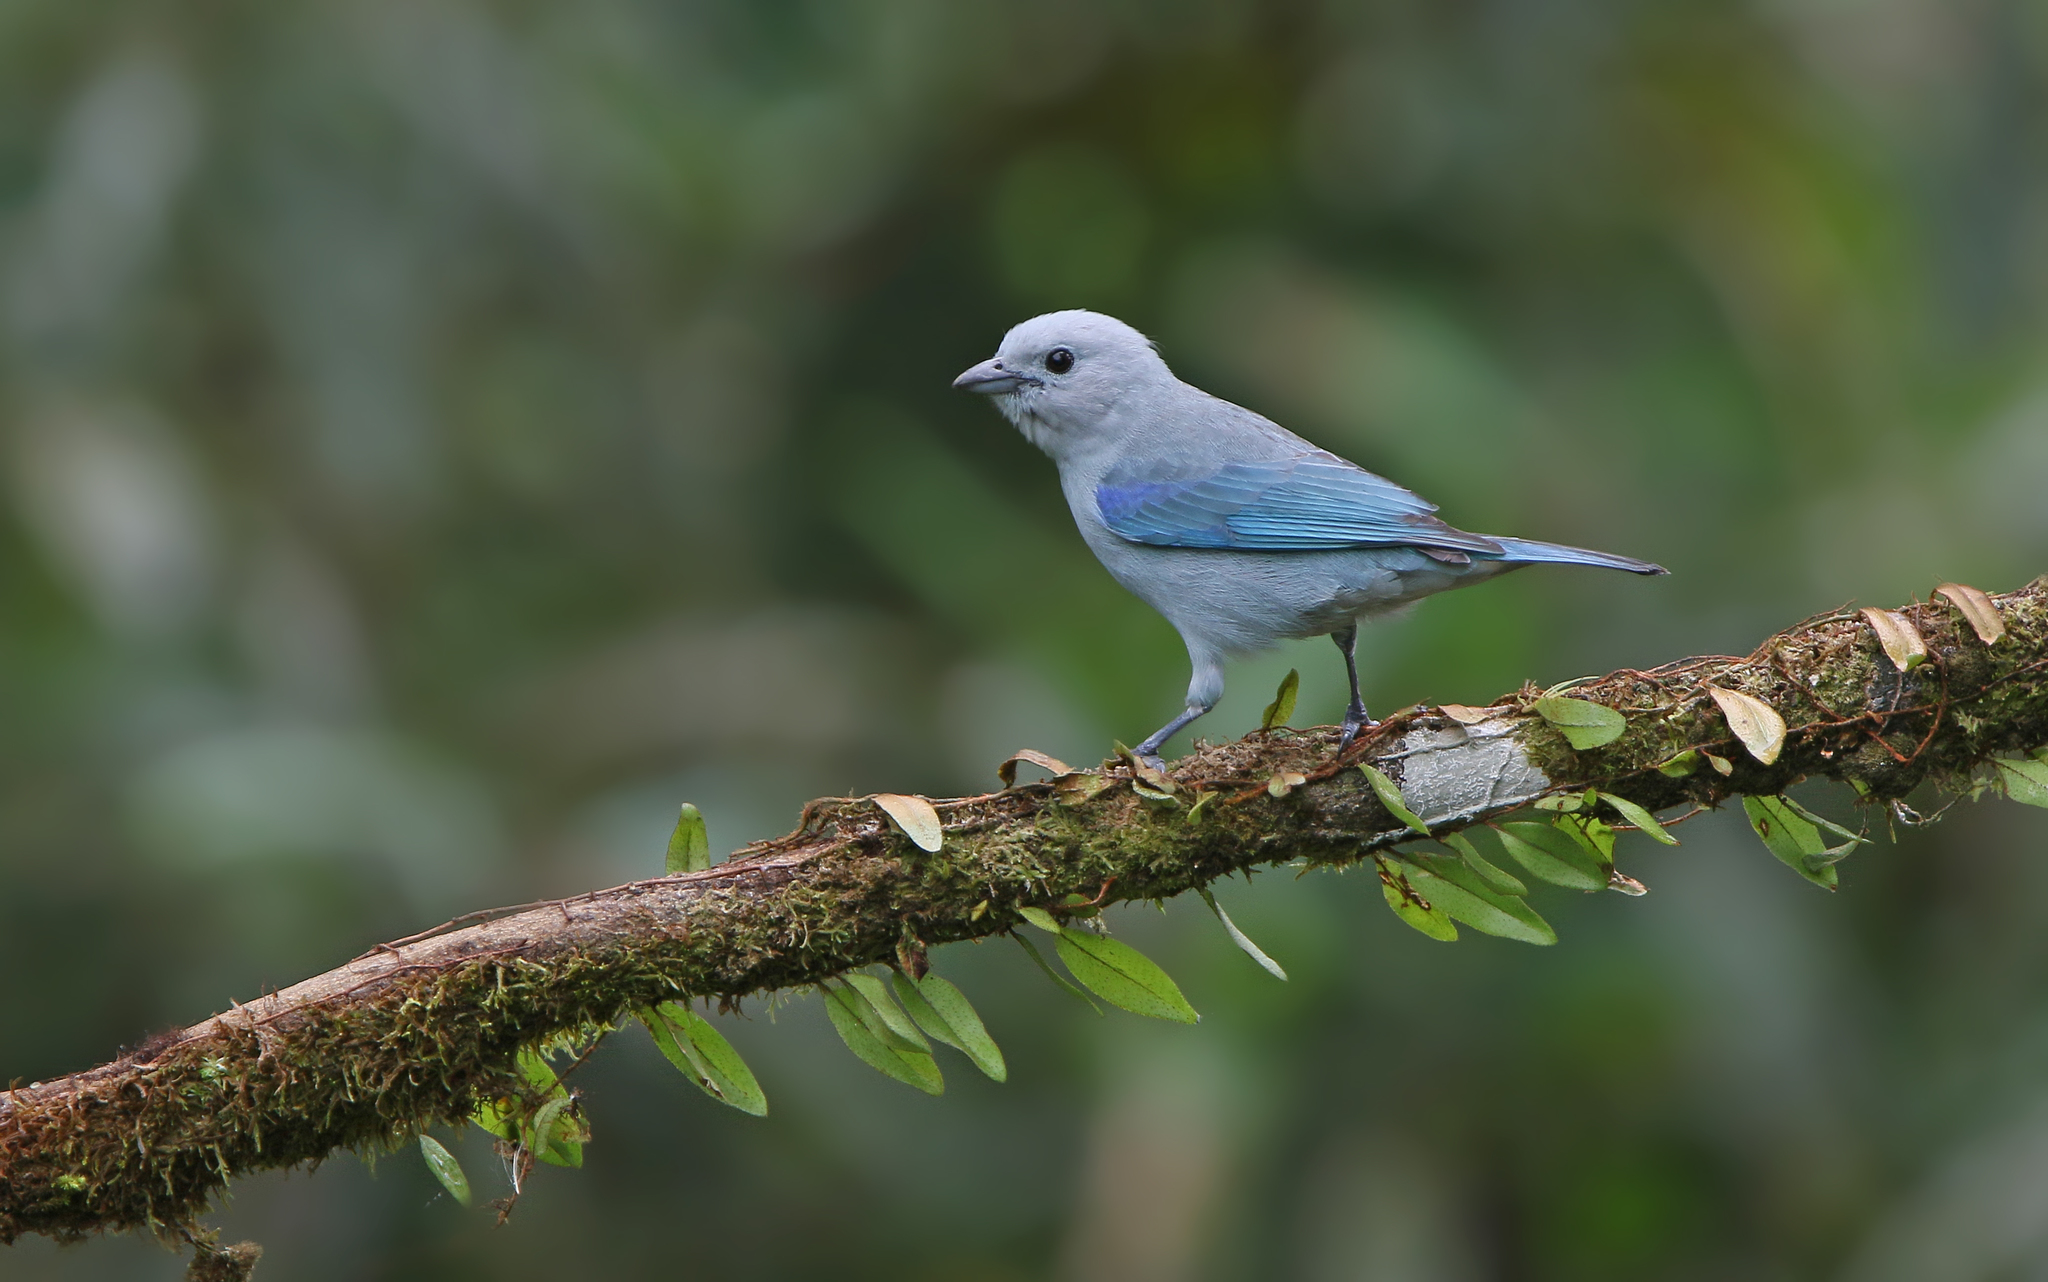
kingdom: Animalia
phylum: Chordata
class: Aves
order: Passeriformes
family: Thraupidae
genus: Thraupis
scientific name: Thraupis episcopus
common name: Blue-grey tanager
